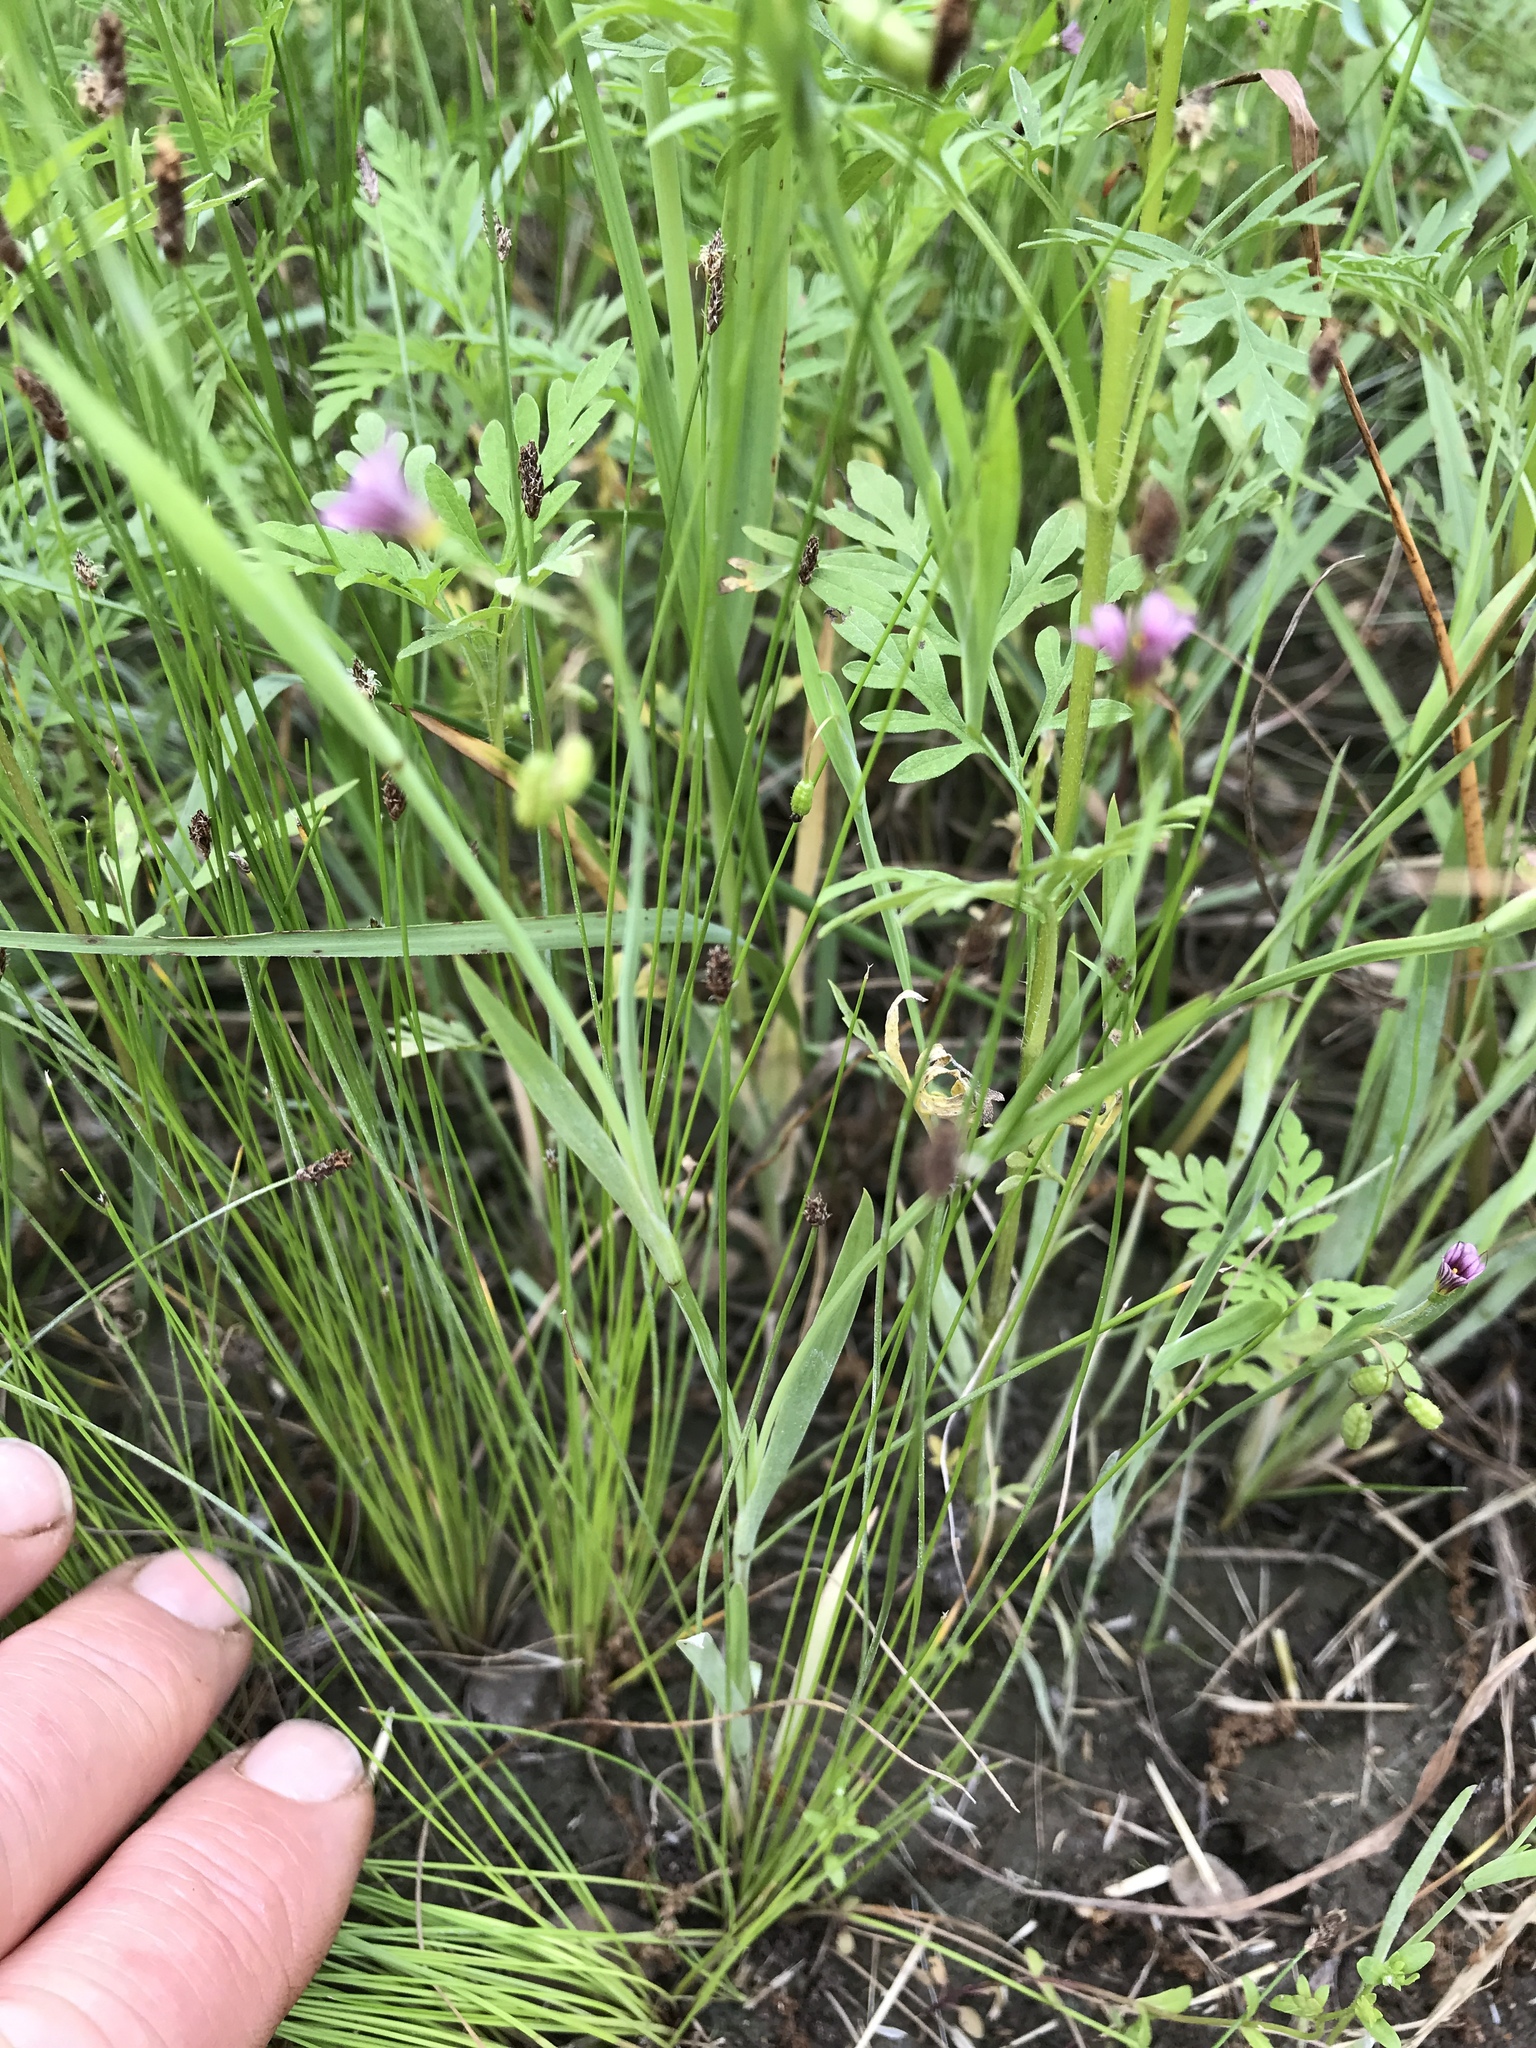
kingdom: Plantae
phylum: Tracheophyta
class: Liliopsida
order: Asparagales
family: Iridaceae
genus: Sisyrinchium
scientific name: Sisyrinchium minus
